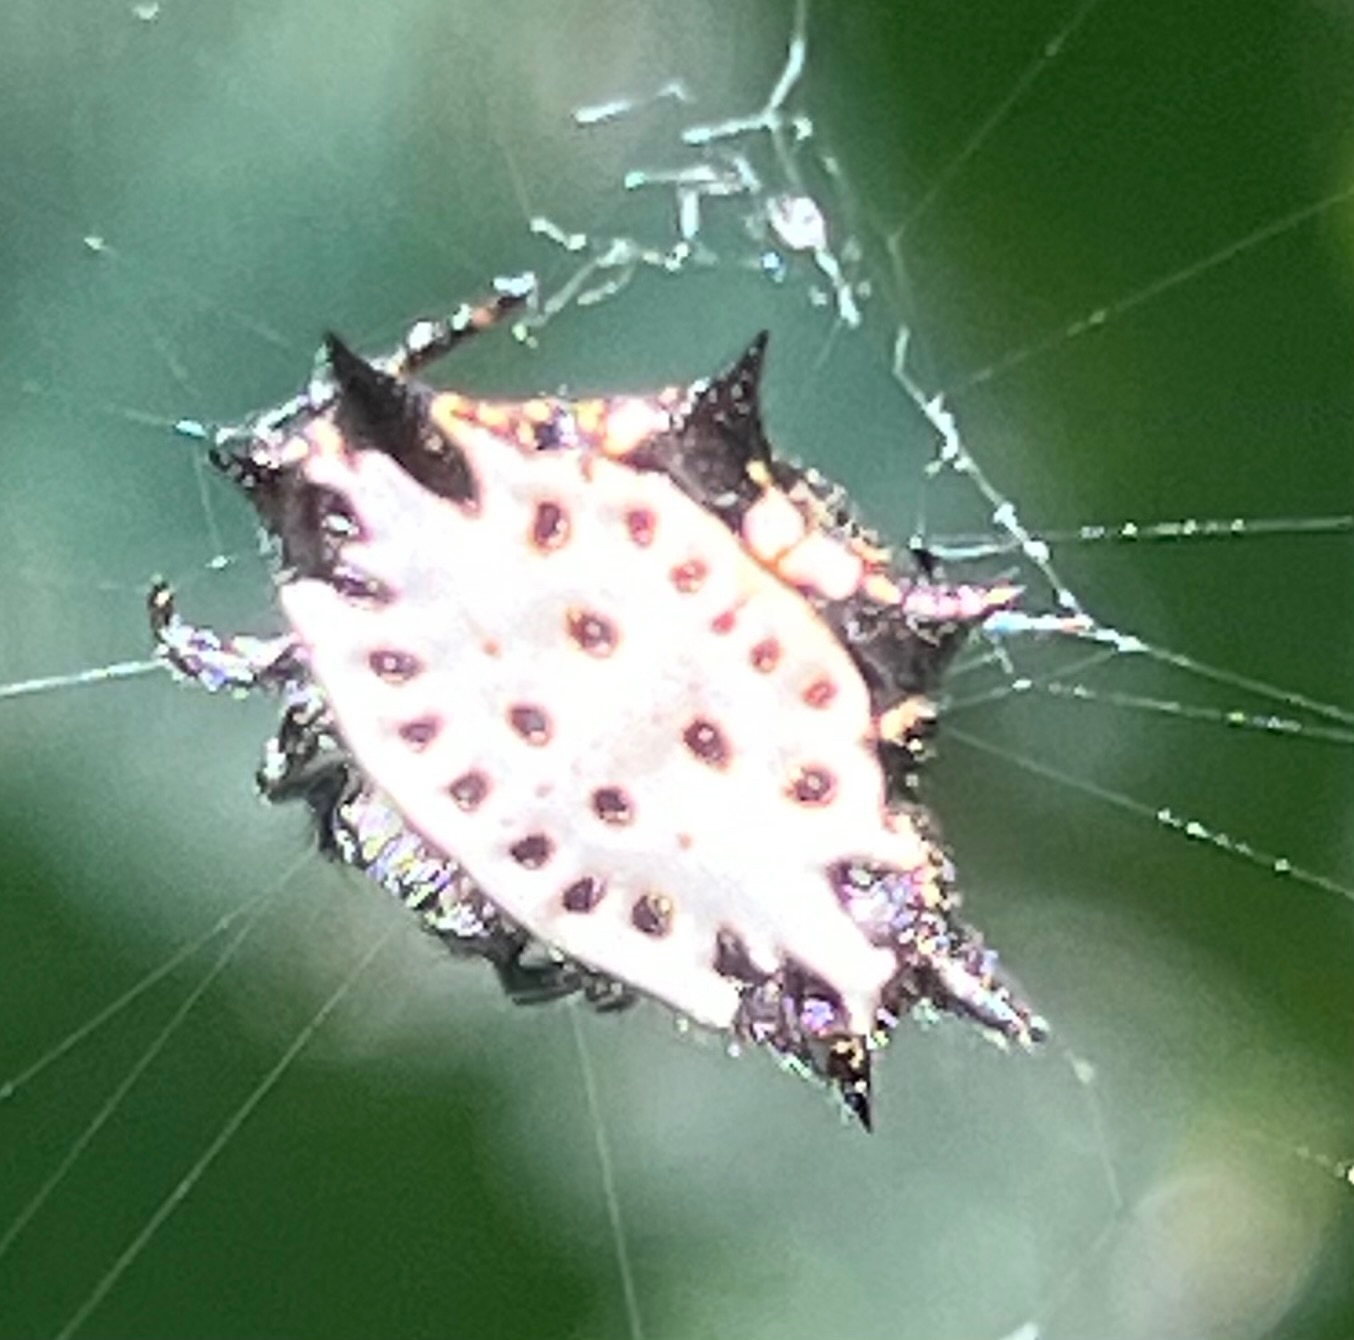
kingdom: Animalia
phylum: Arthropoda
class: Arachnida
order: Araneae
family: Araneidae
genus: Gasteracantha
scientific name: Gasteracantha cancriformis
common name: Orb weavers
